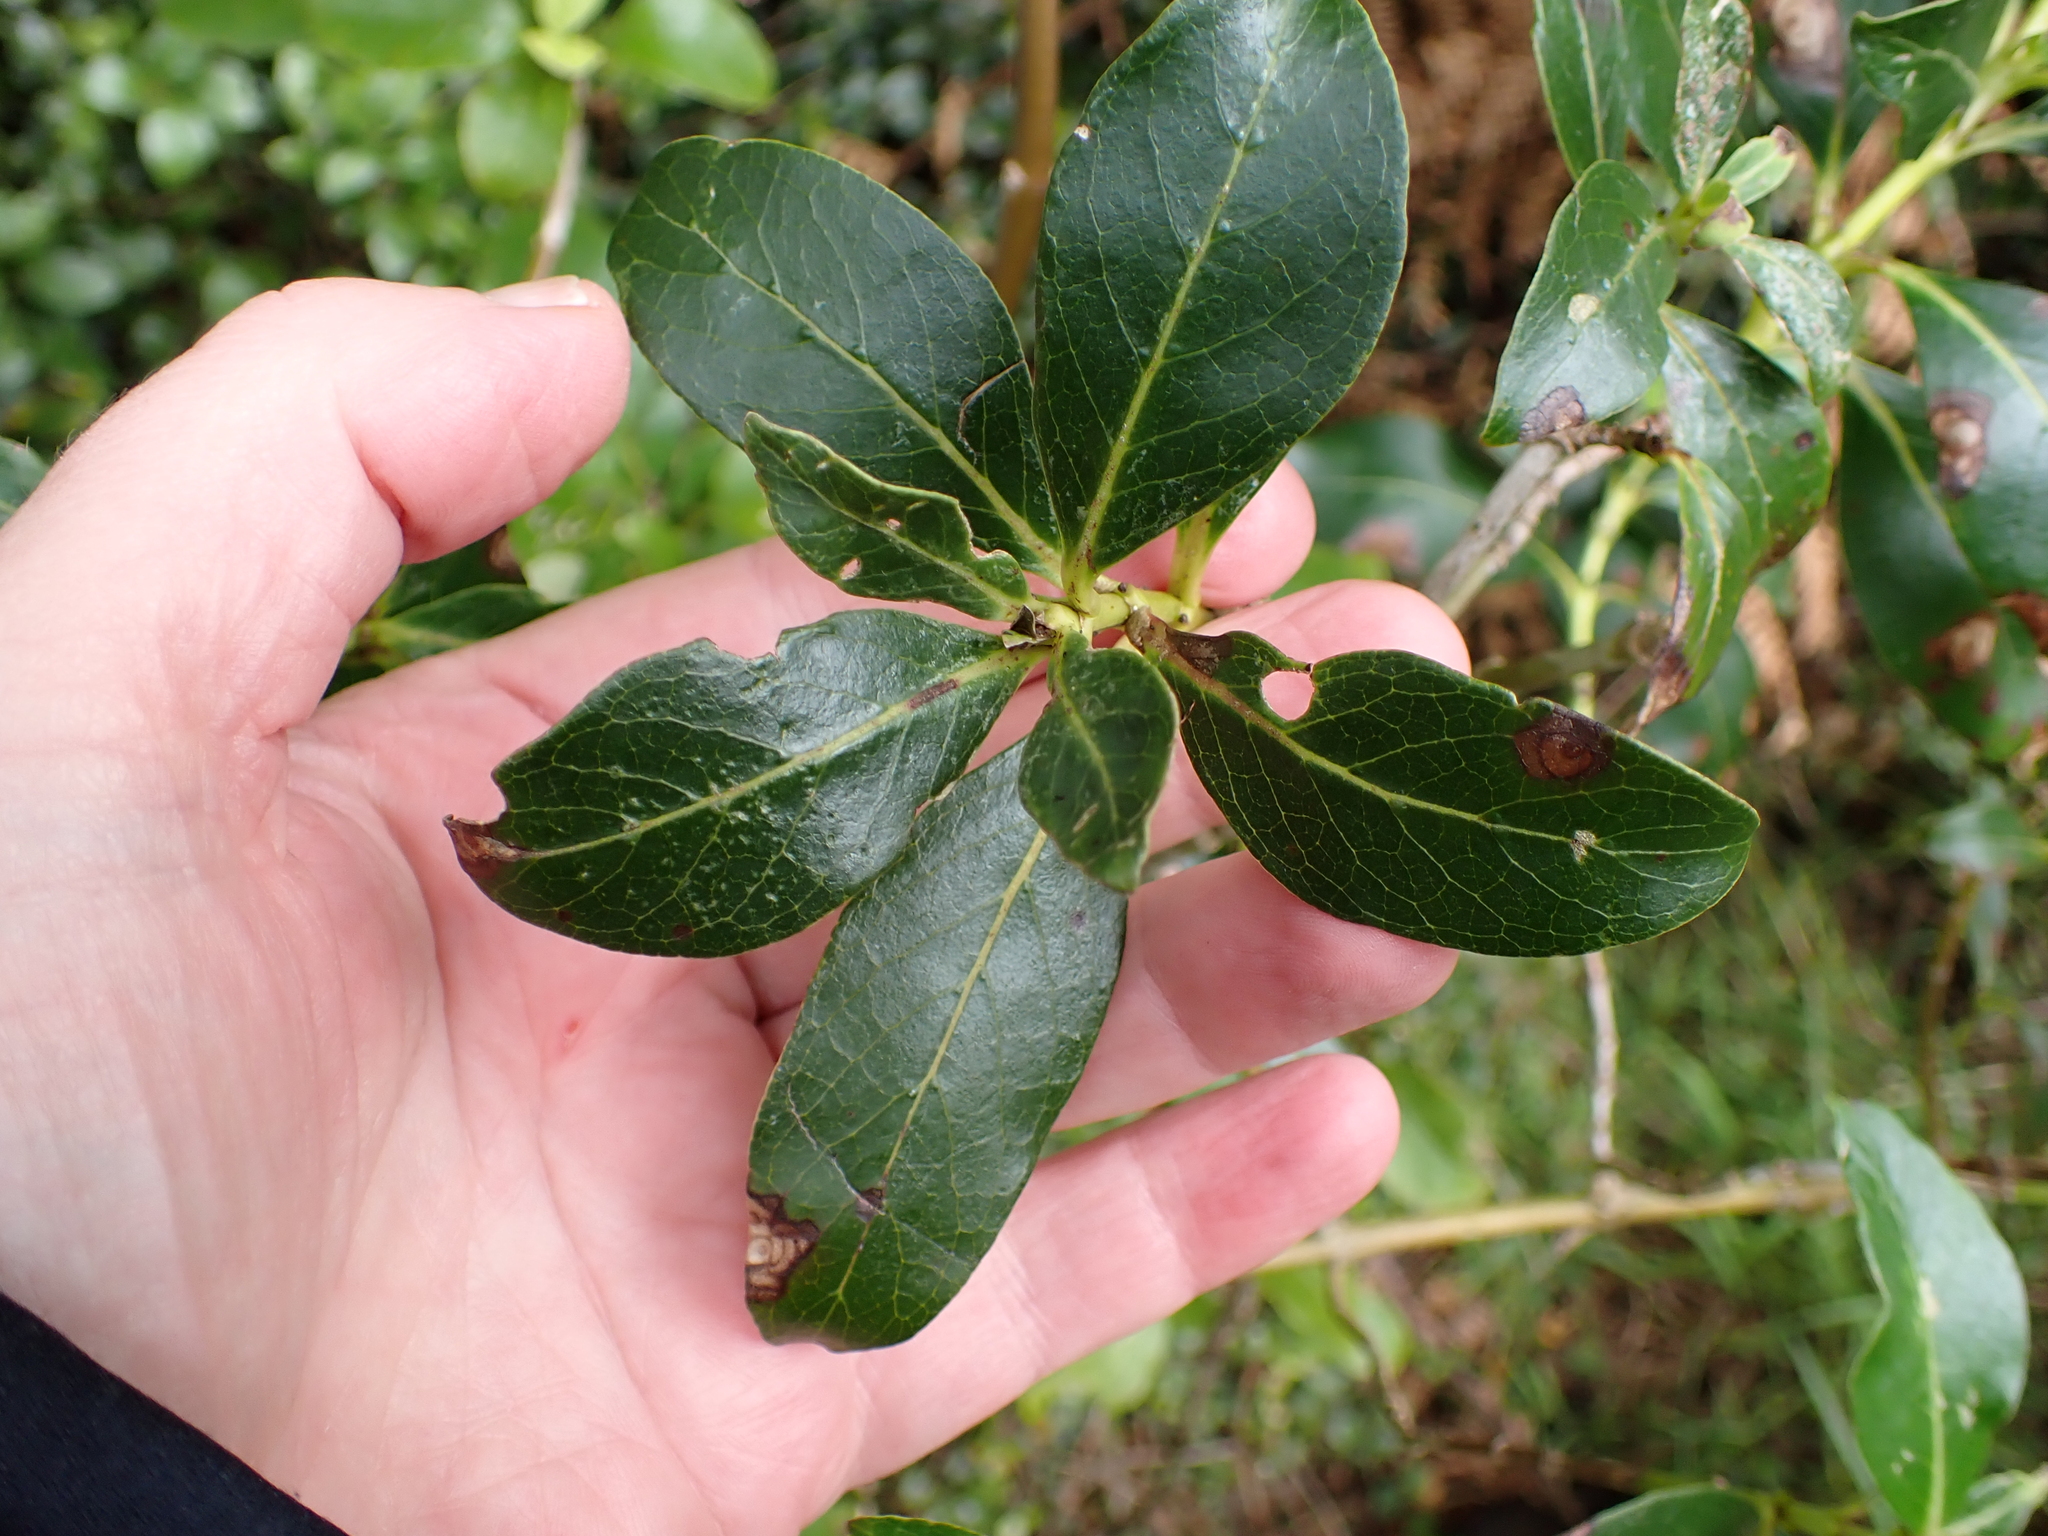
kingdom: Plantae
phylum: Tracheophyta
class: Magnoliopsida
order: Gentianales
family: Rubiaceae
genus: Coprosma
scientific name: Coprosma robusta
